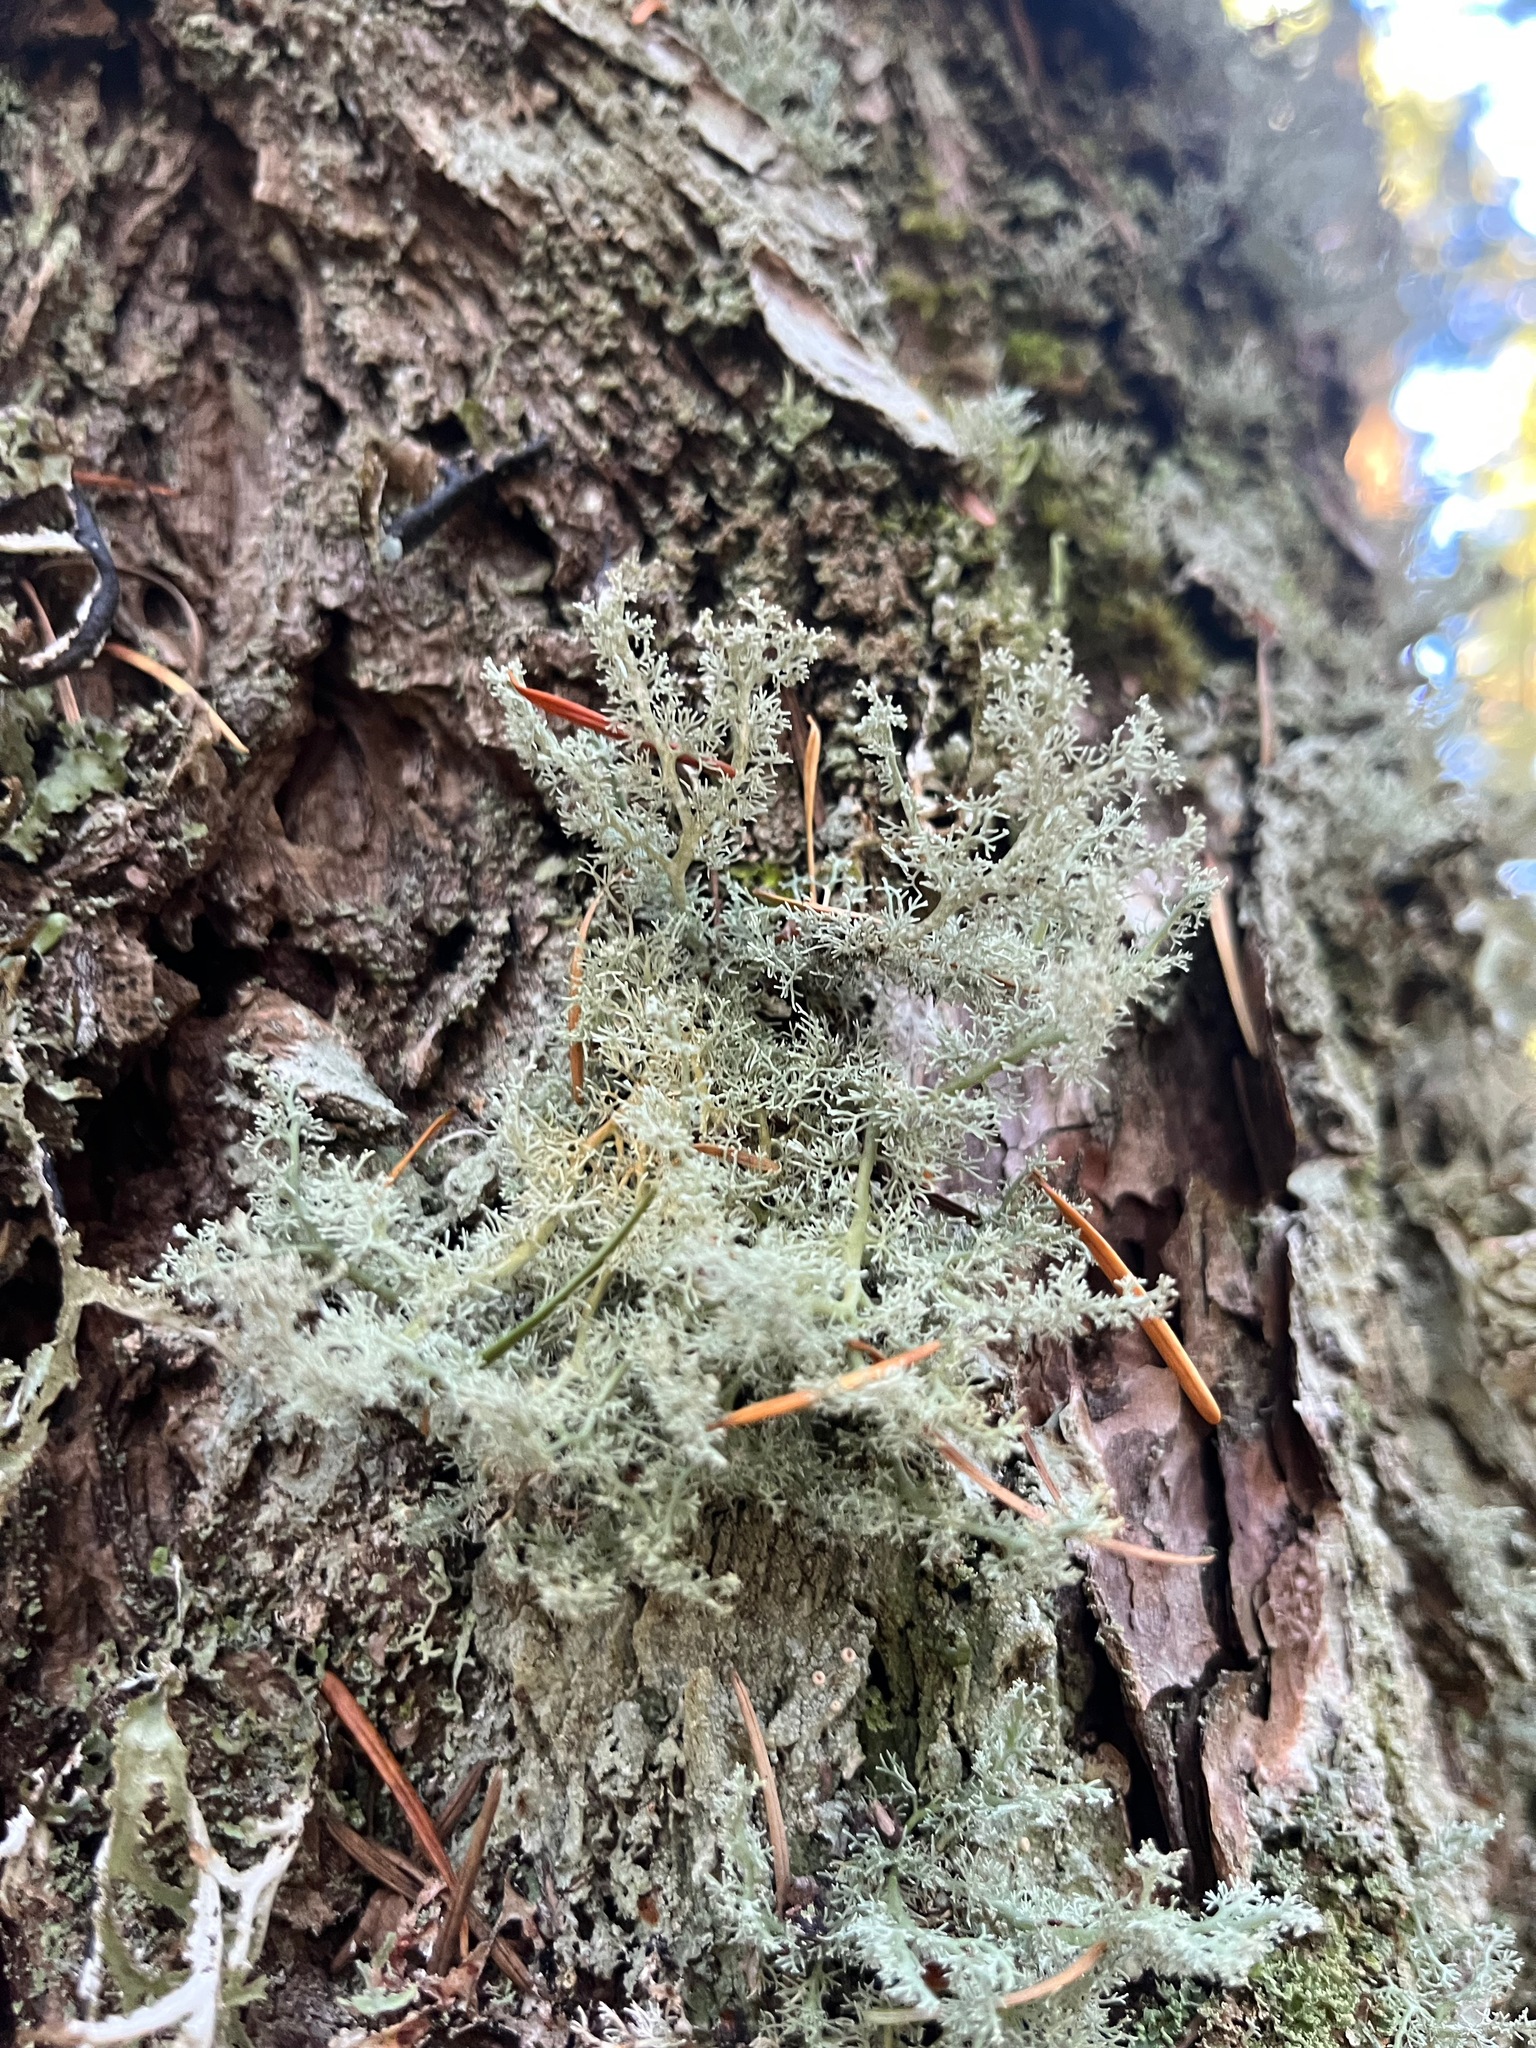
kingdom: Fungi
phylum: Ascomycota
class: Lecanoromycetes
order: Lecanorales
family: Sphaerophoraceae
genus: Sphaerophorus
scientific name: Sphaerophorus globosus
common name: Globe ball lichen
